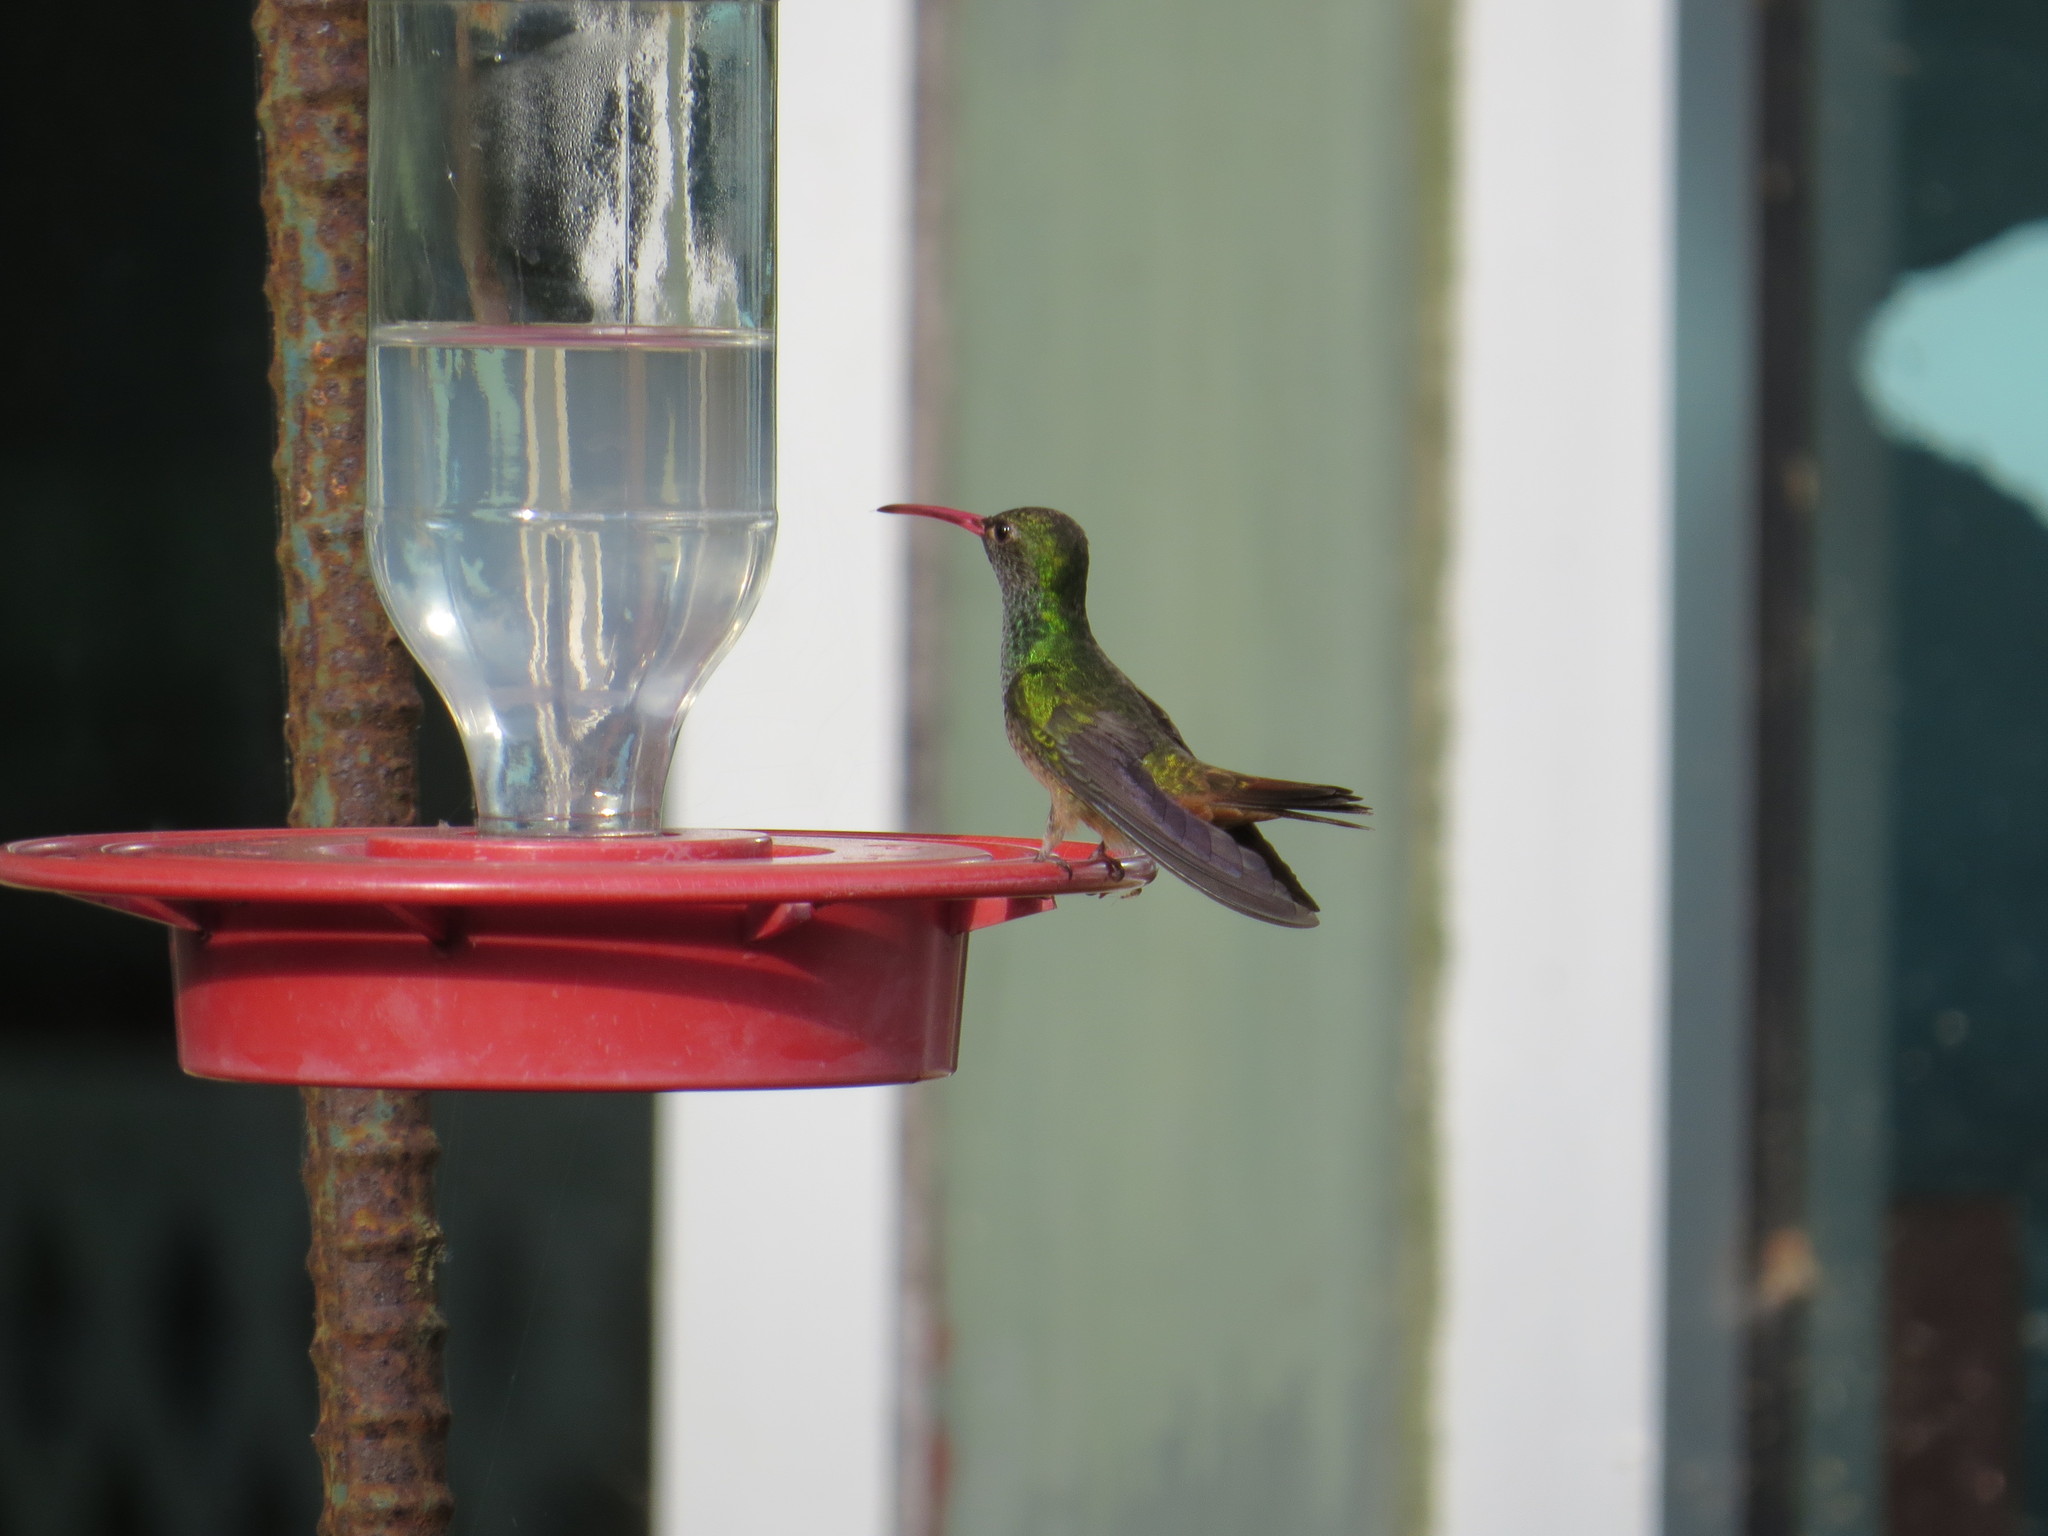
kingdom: Animalia
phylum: Chordata
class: Aves
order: Apodiformes
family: Trochilidae
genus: Amazilia
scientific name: Amazilia yucatanensis
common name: Buff-bellied hummingbird
